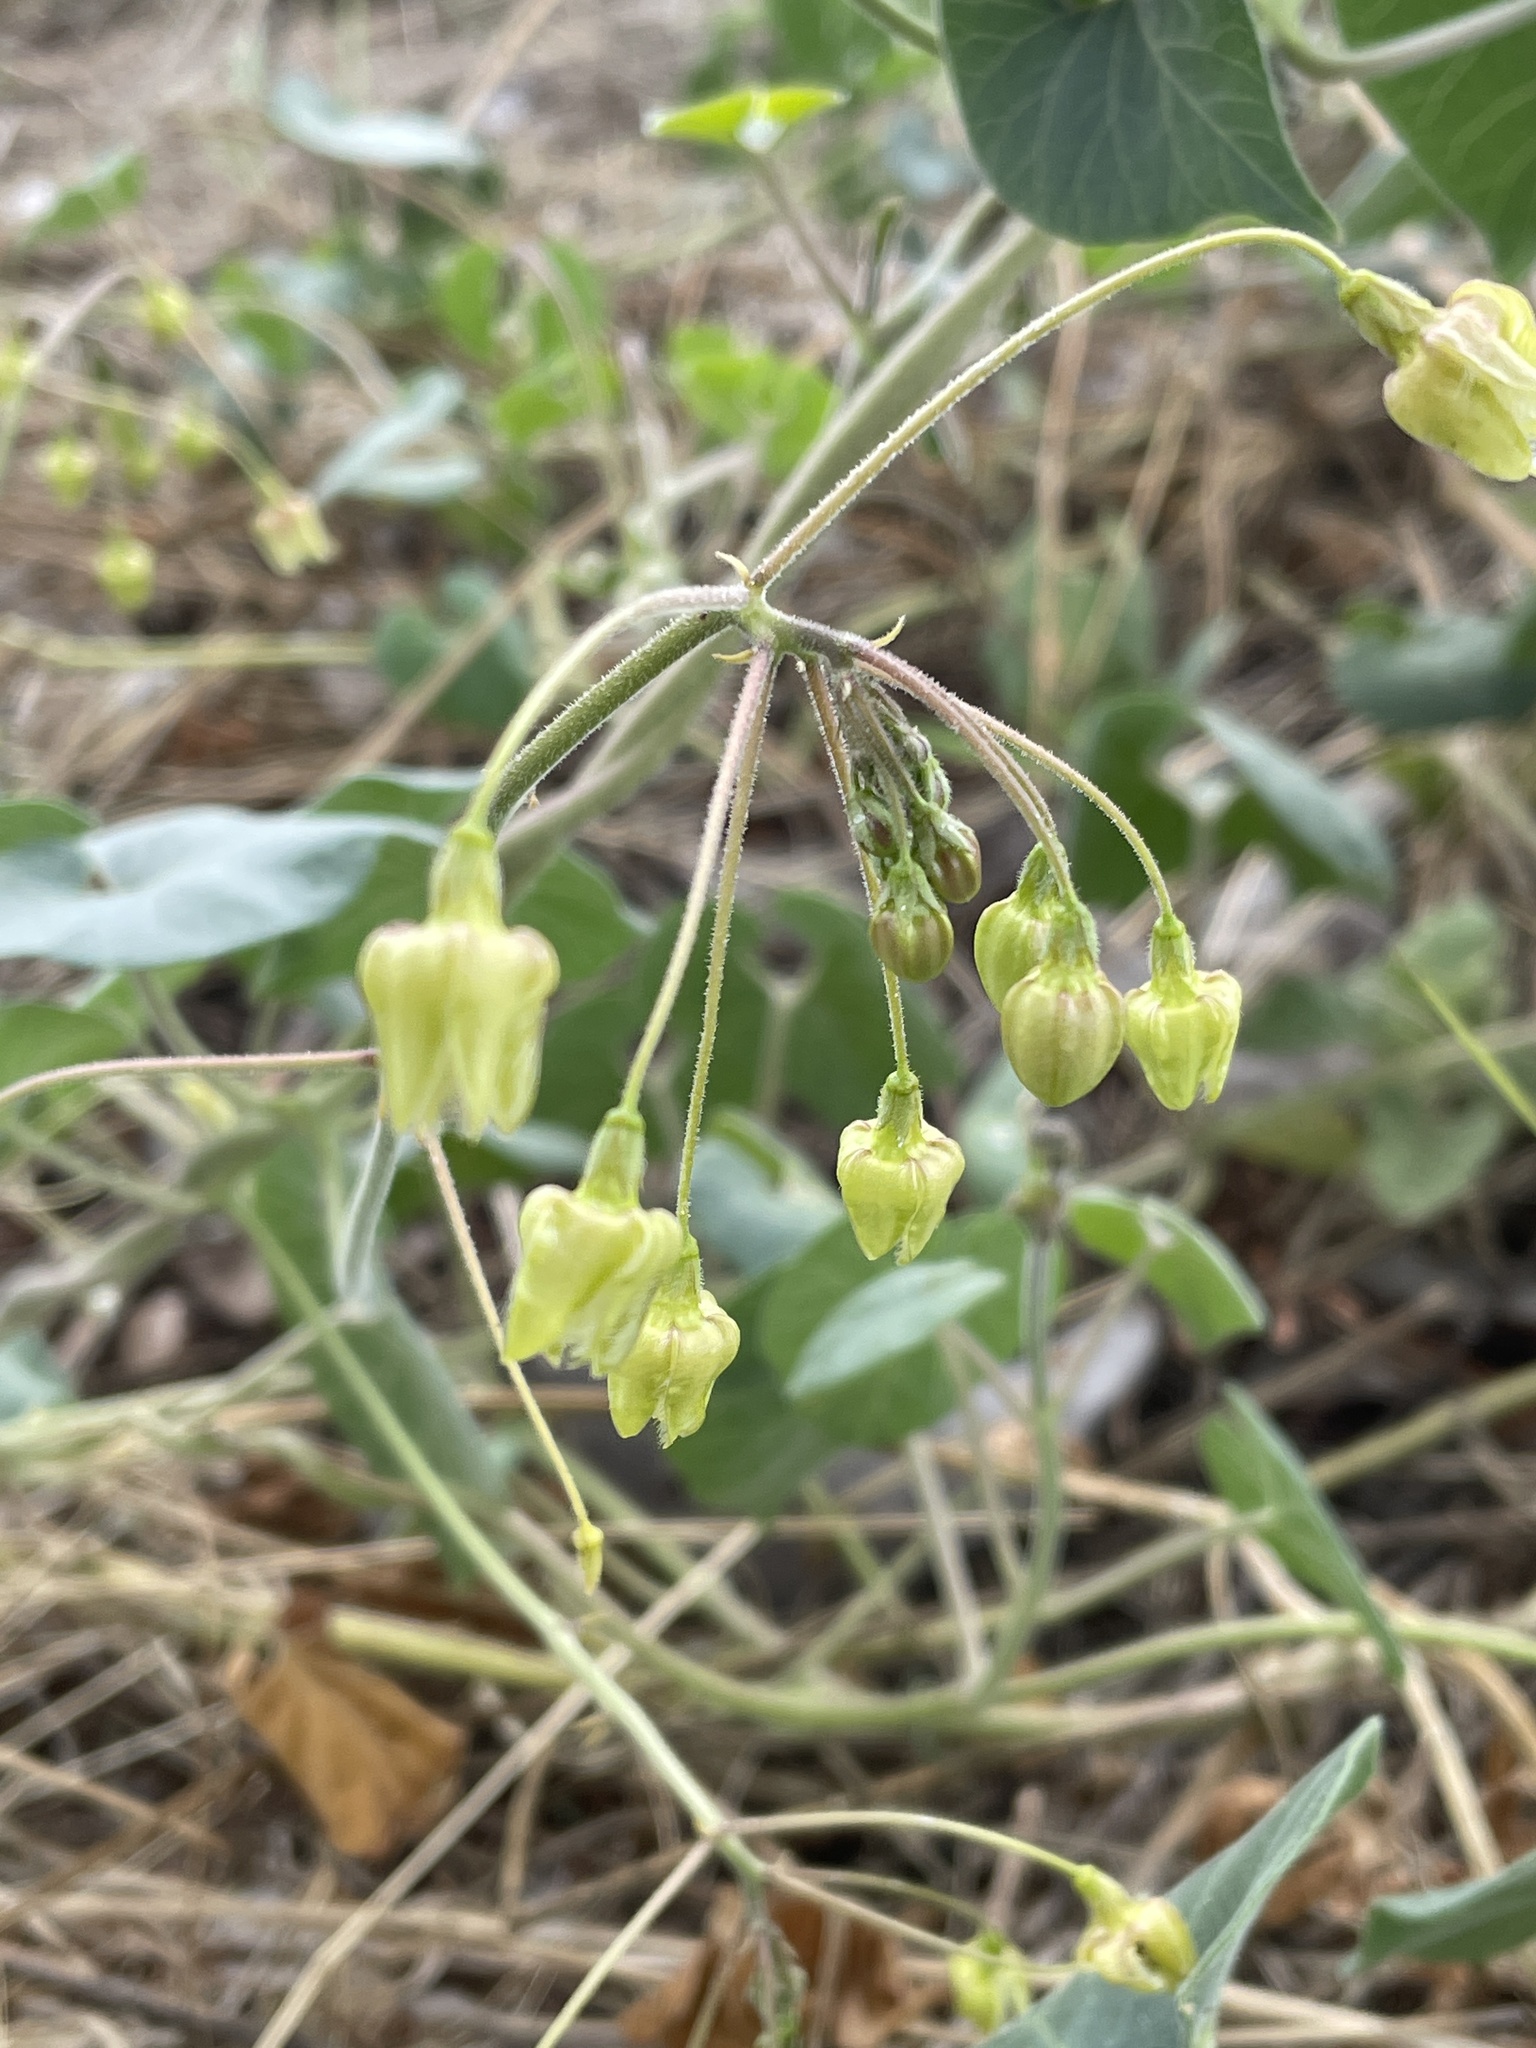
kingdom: Plantae
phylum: Tracheophyta
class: Magnoliopsida
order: Gentianales
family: Apocynaceae
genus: Pergularia
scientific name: Pergularia daemia
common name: Trellis-vine
